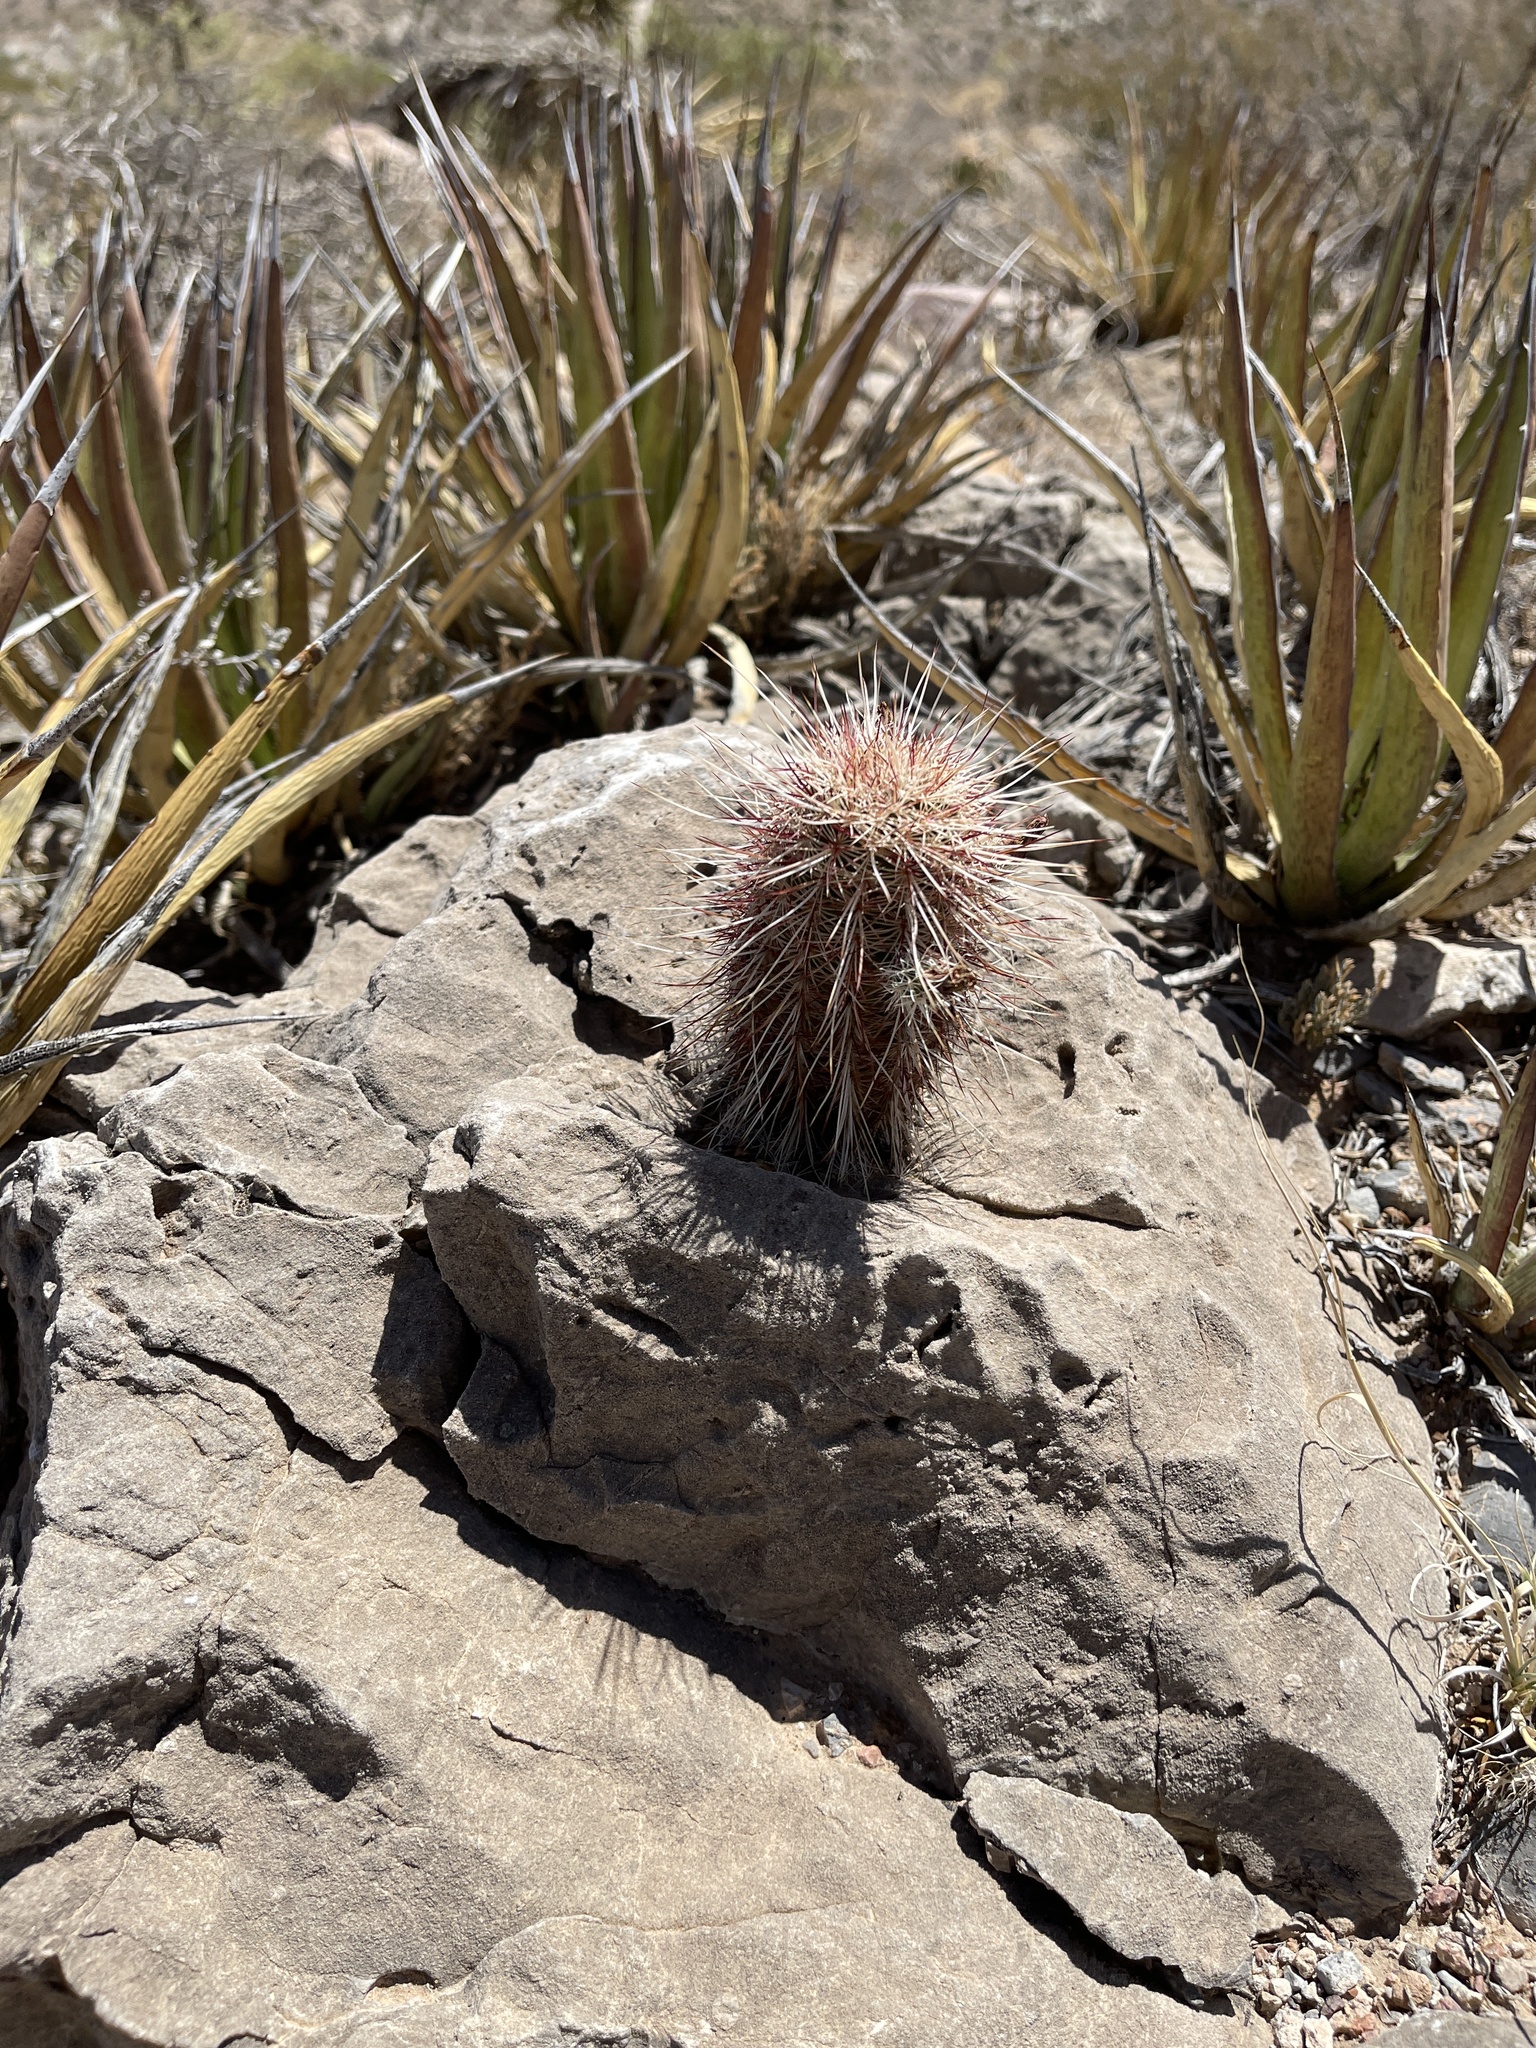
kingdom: Plantae
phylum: Tracheophyta
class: Magnoliopsida
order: Caryophyllales
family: Cactaceae
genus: Echinocereus
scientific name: Echinocereus viridiflorus
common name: Nylon hedgehog cactus
